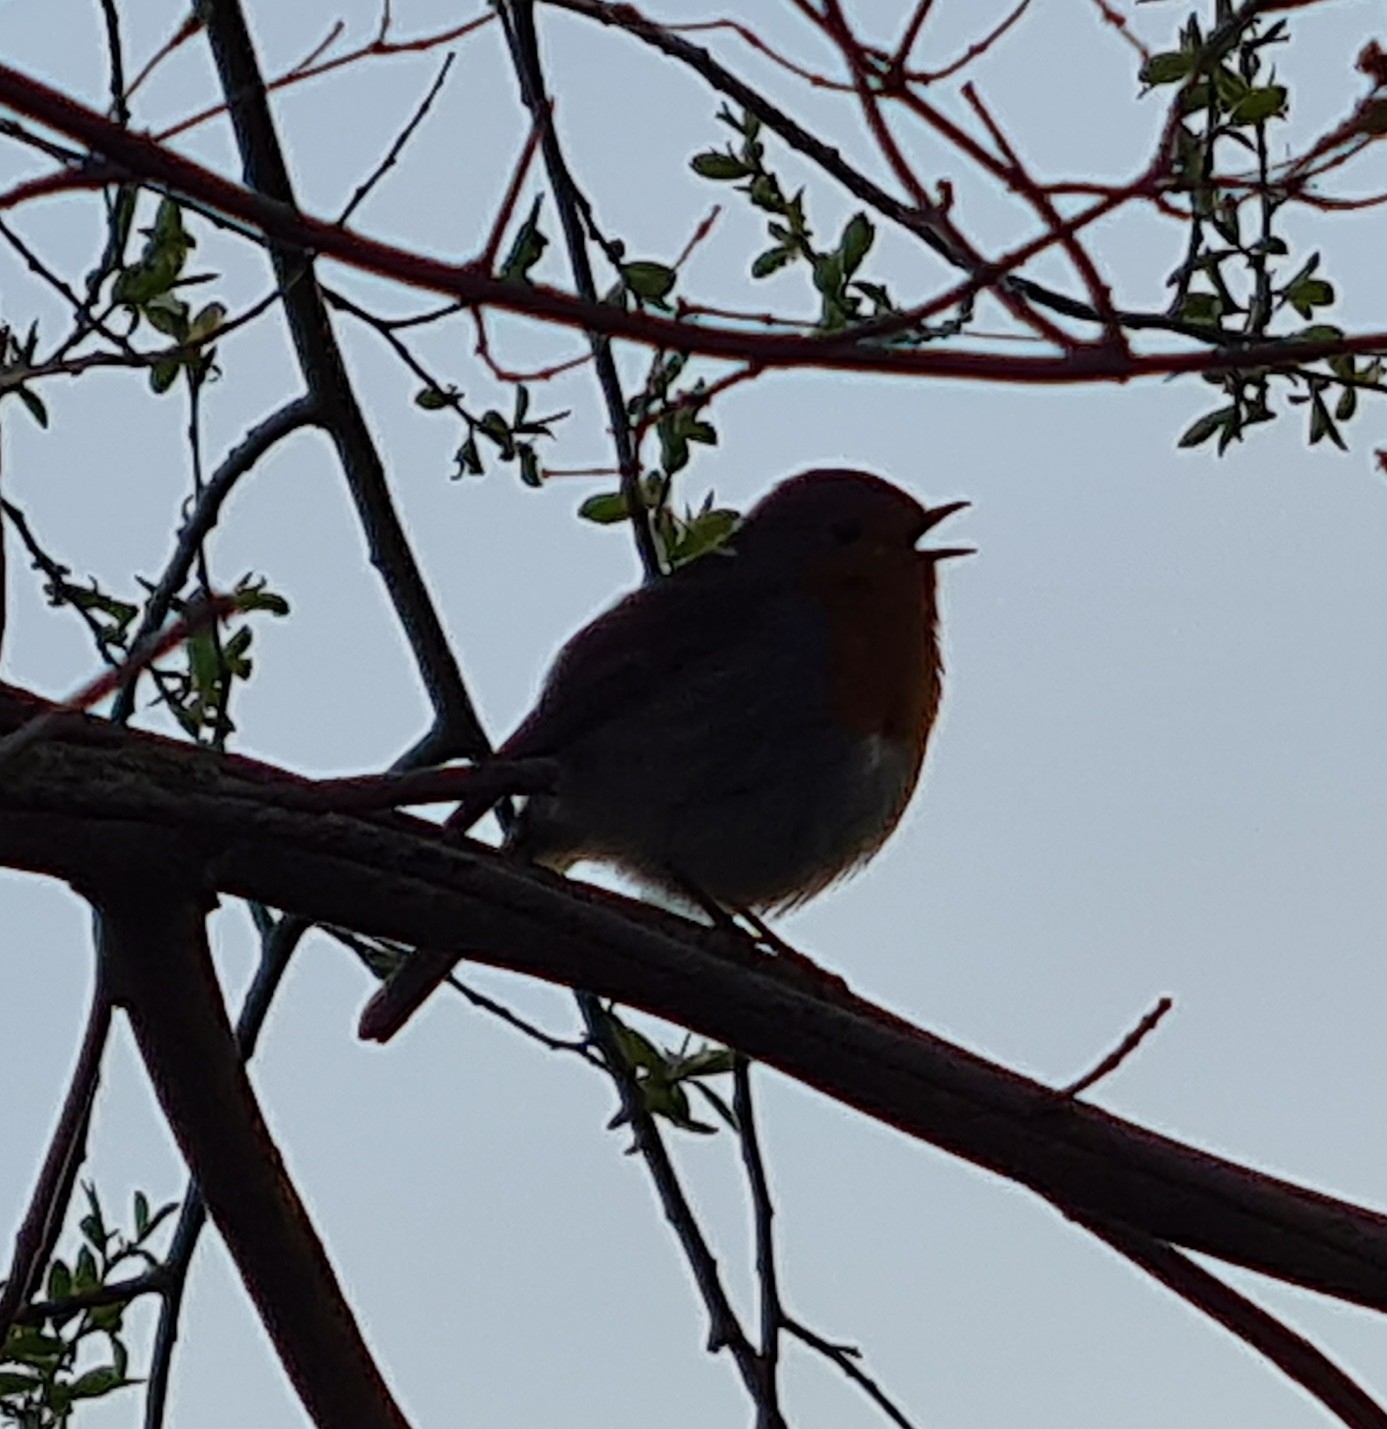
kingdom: Animalia
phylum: Chordata
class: Aves
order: Passeriformes
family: Muscicapidae
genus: Erithacus
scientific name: Erithacus rubecula
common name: European robin
